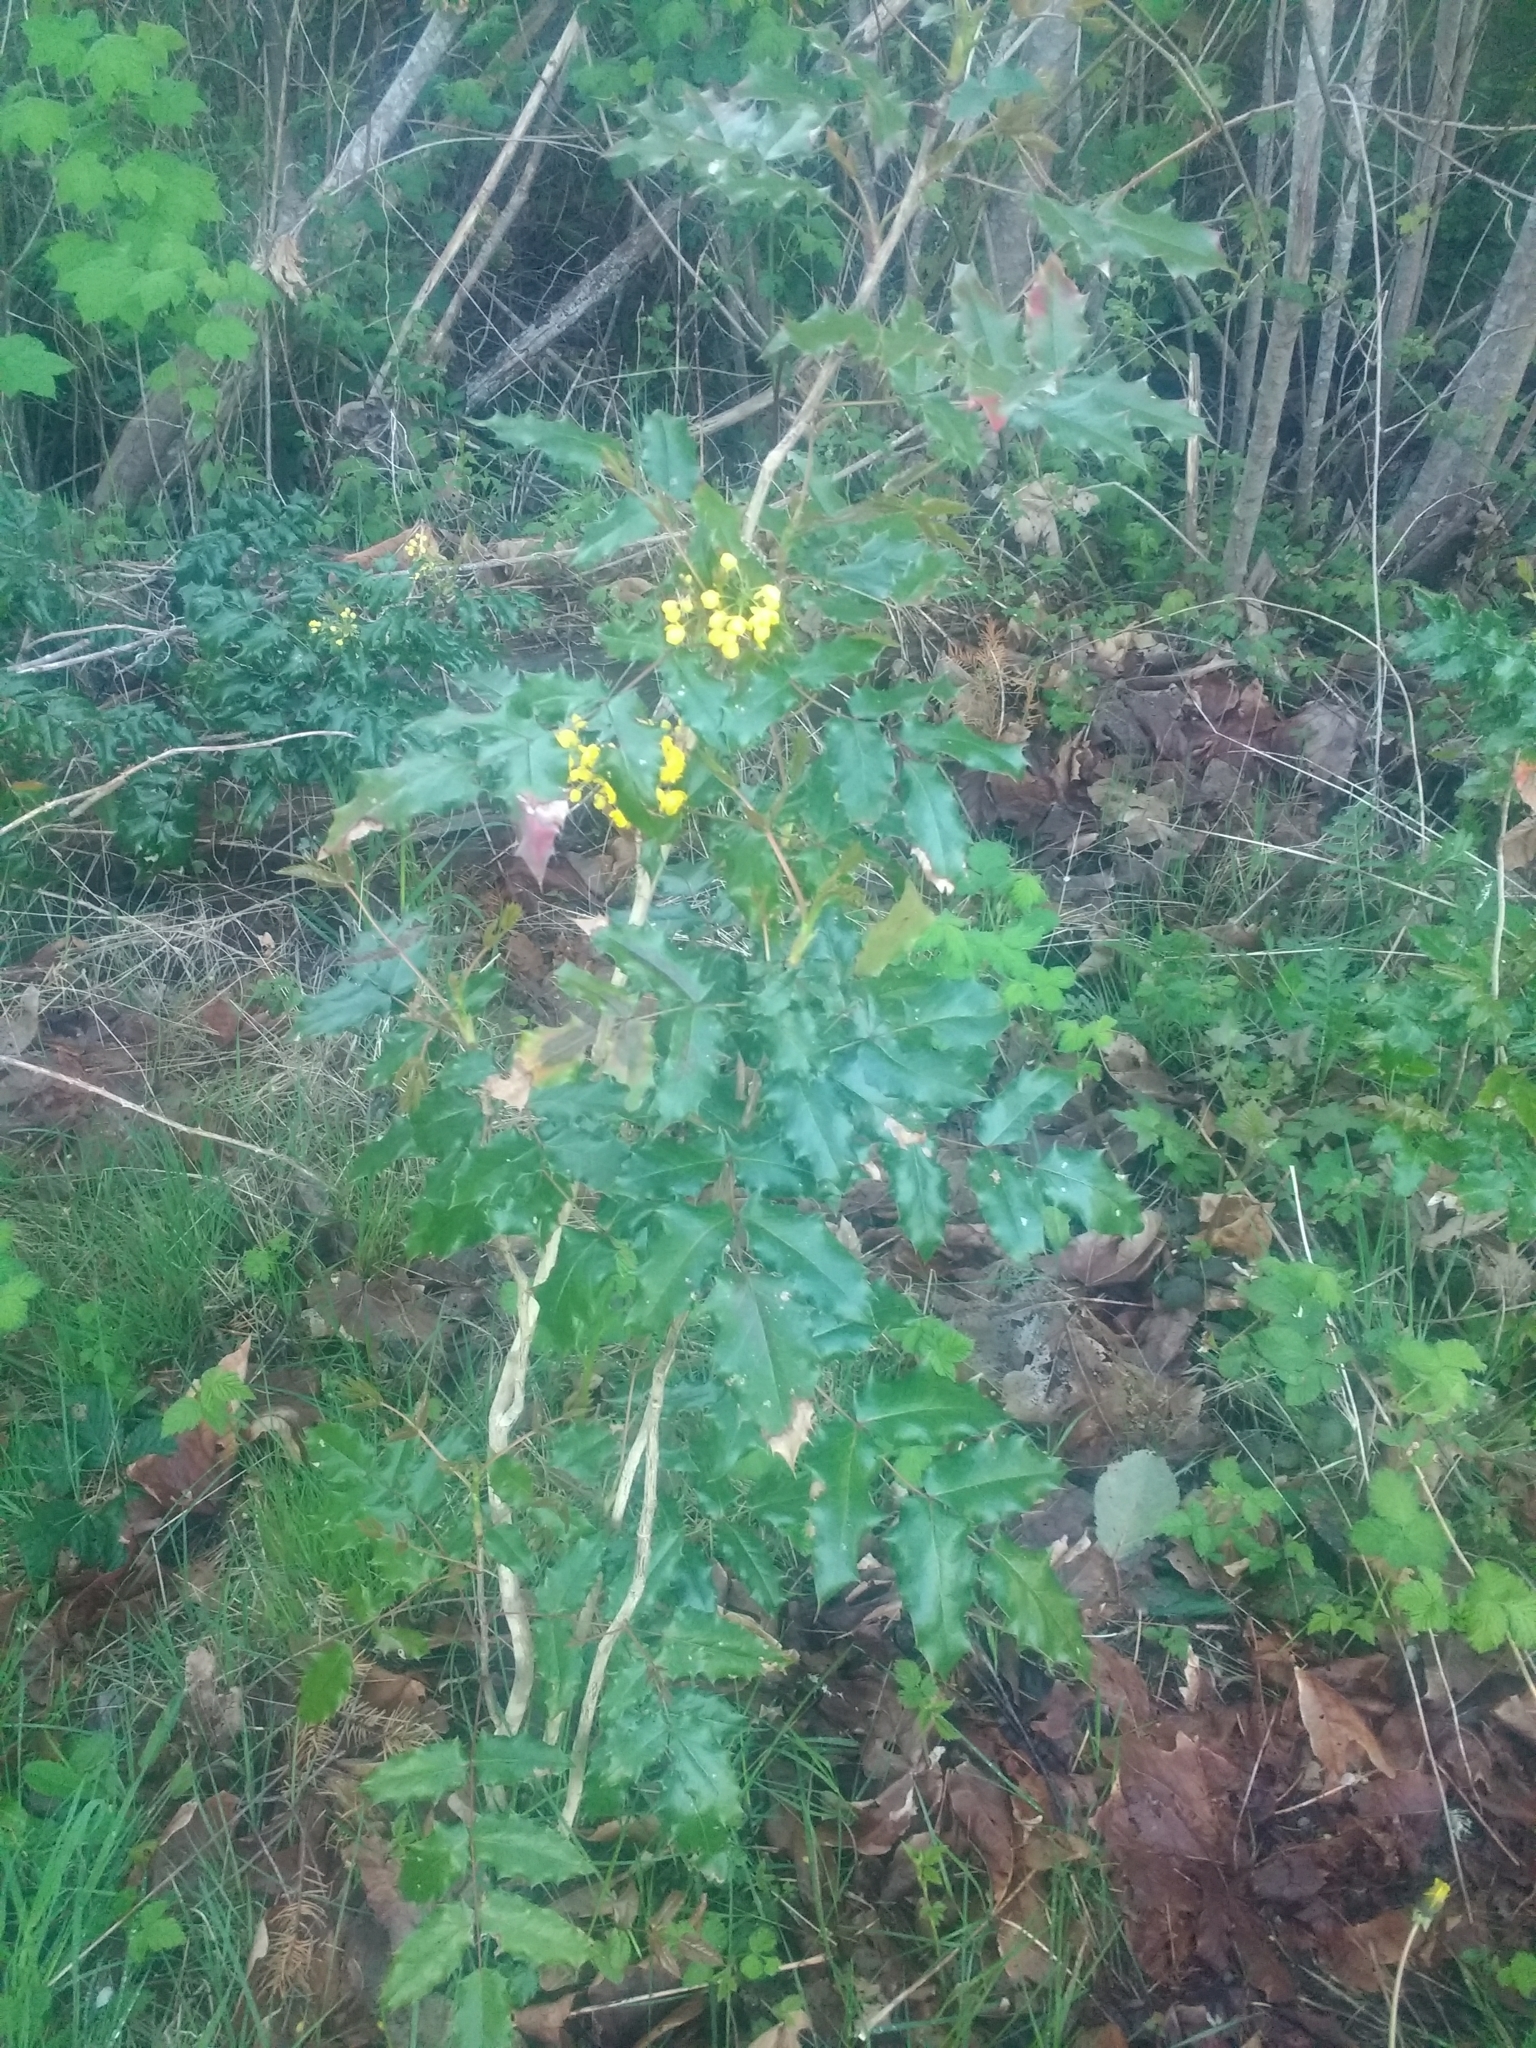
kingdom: Plantae
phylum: Tracheophyta
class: Magnoliopsida
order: Ranunculales
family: Berberidaceae
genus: Mahonia
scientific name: Mahonia aquifolium
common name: Oregon-grape
